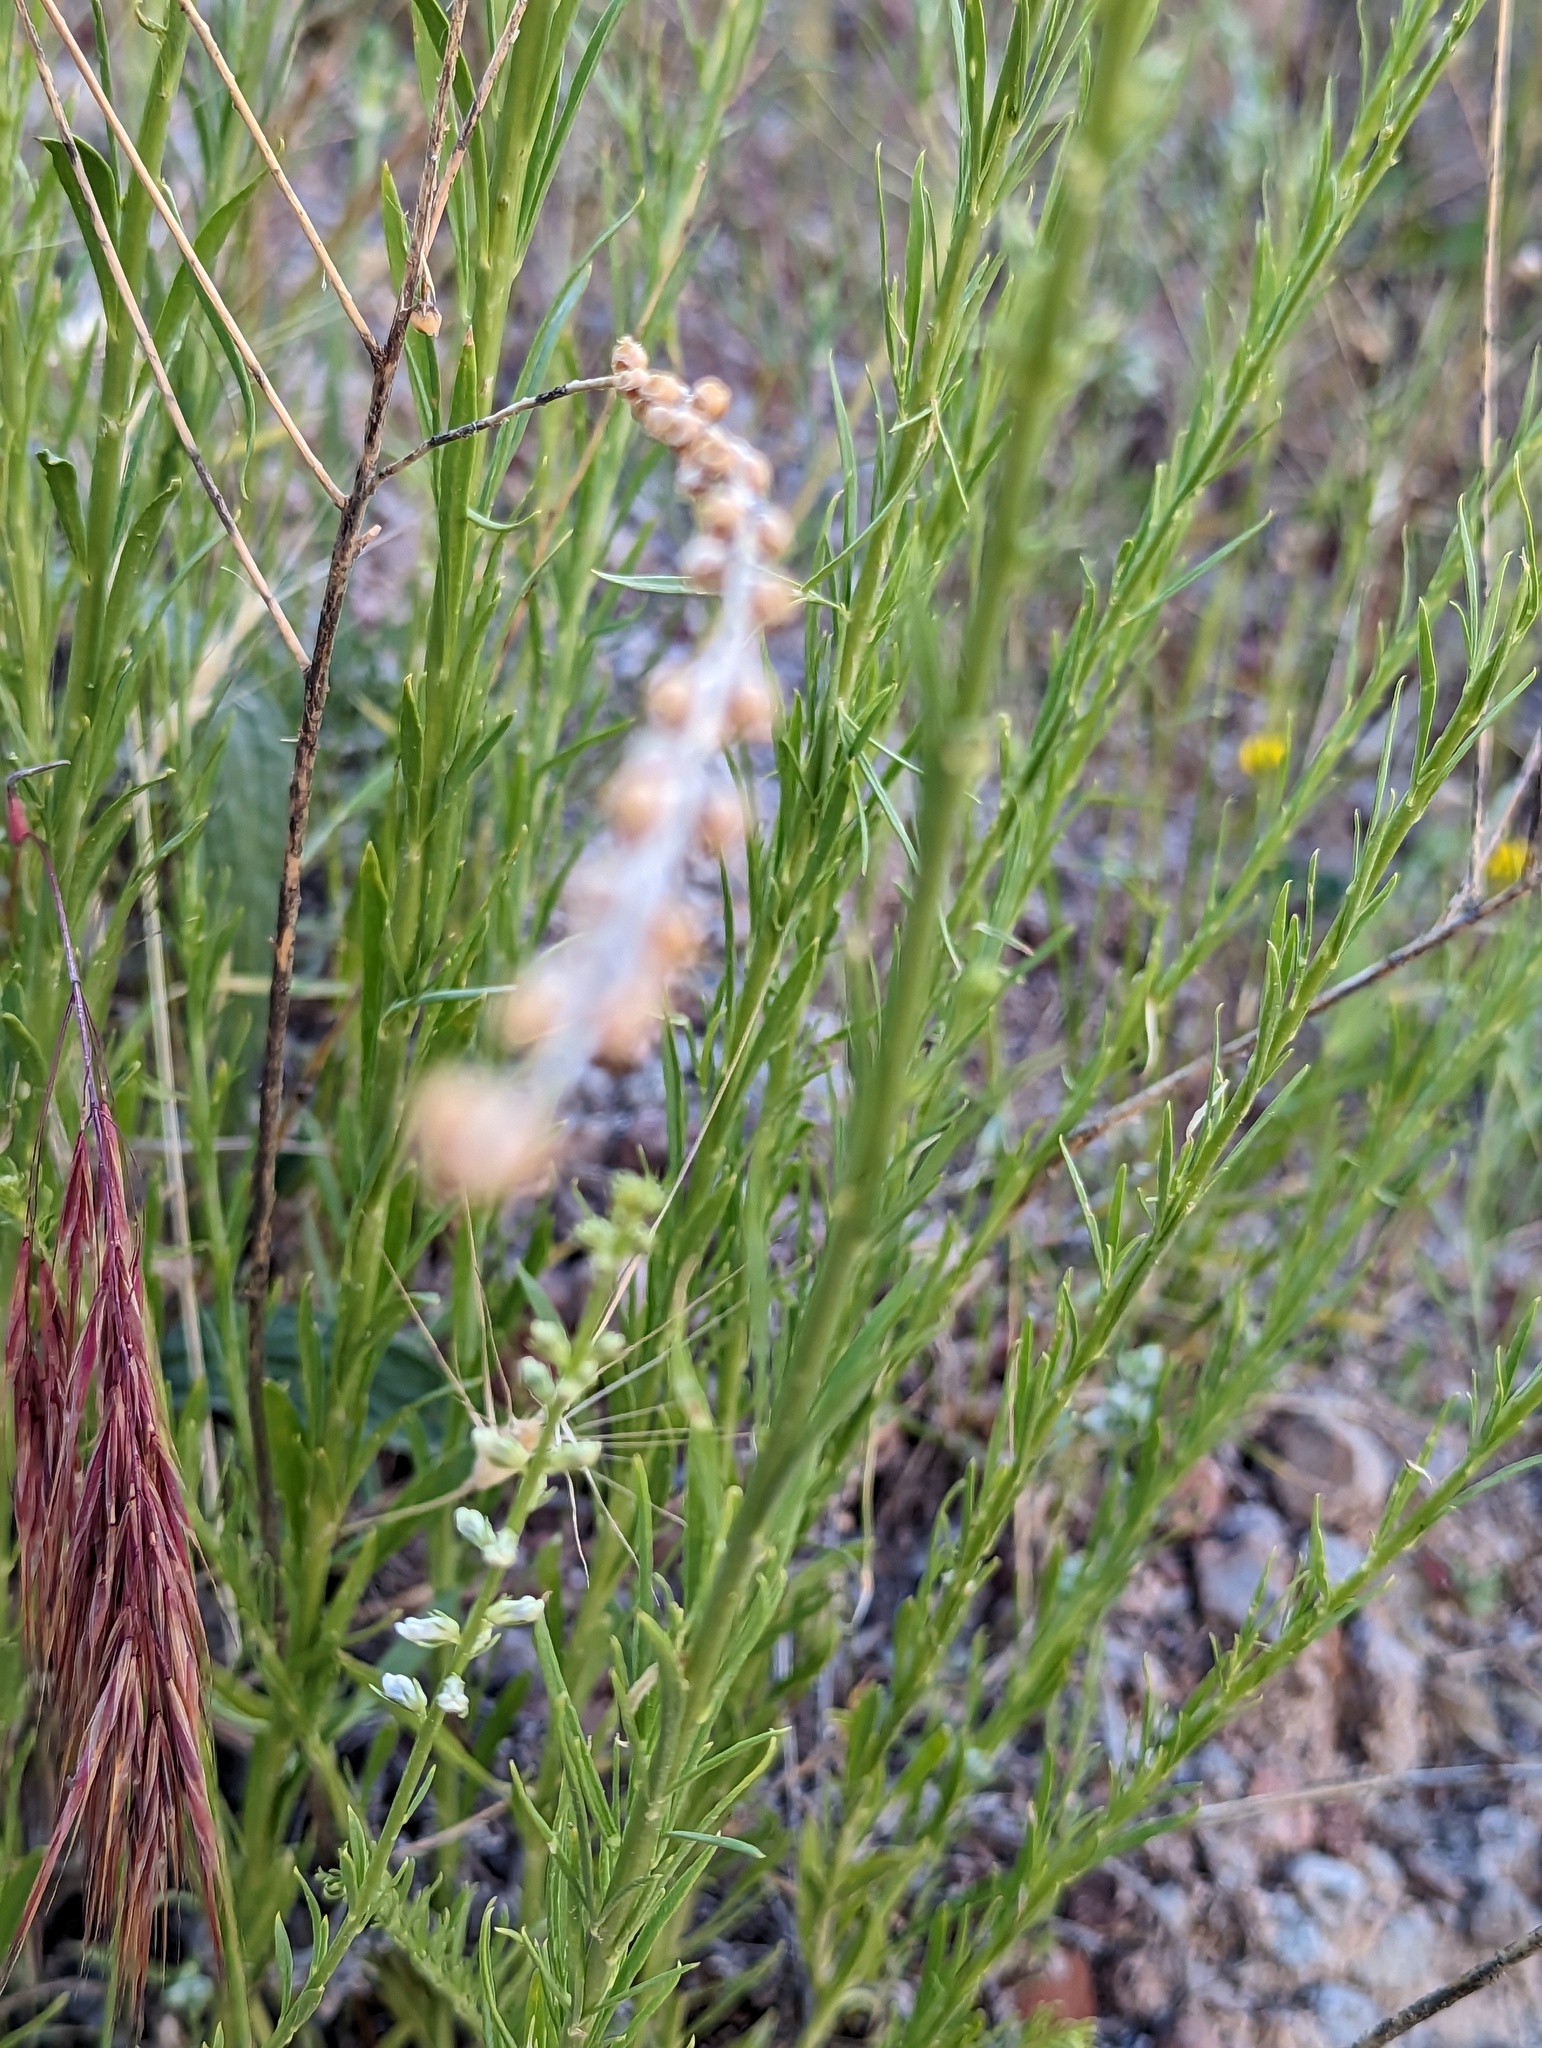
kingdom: Plantae
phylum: Tracheophyta
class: Magnoliopsida
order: Lamiales
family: Plantaginaceae
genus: Anarrhinum
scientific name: Anarrhinum forskaohlii
